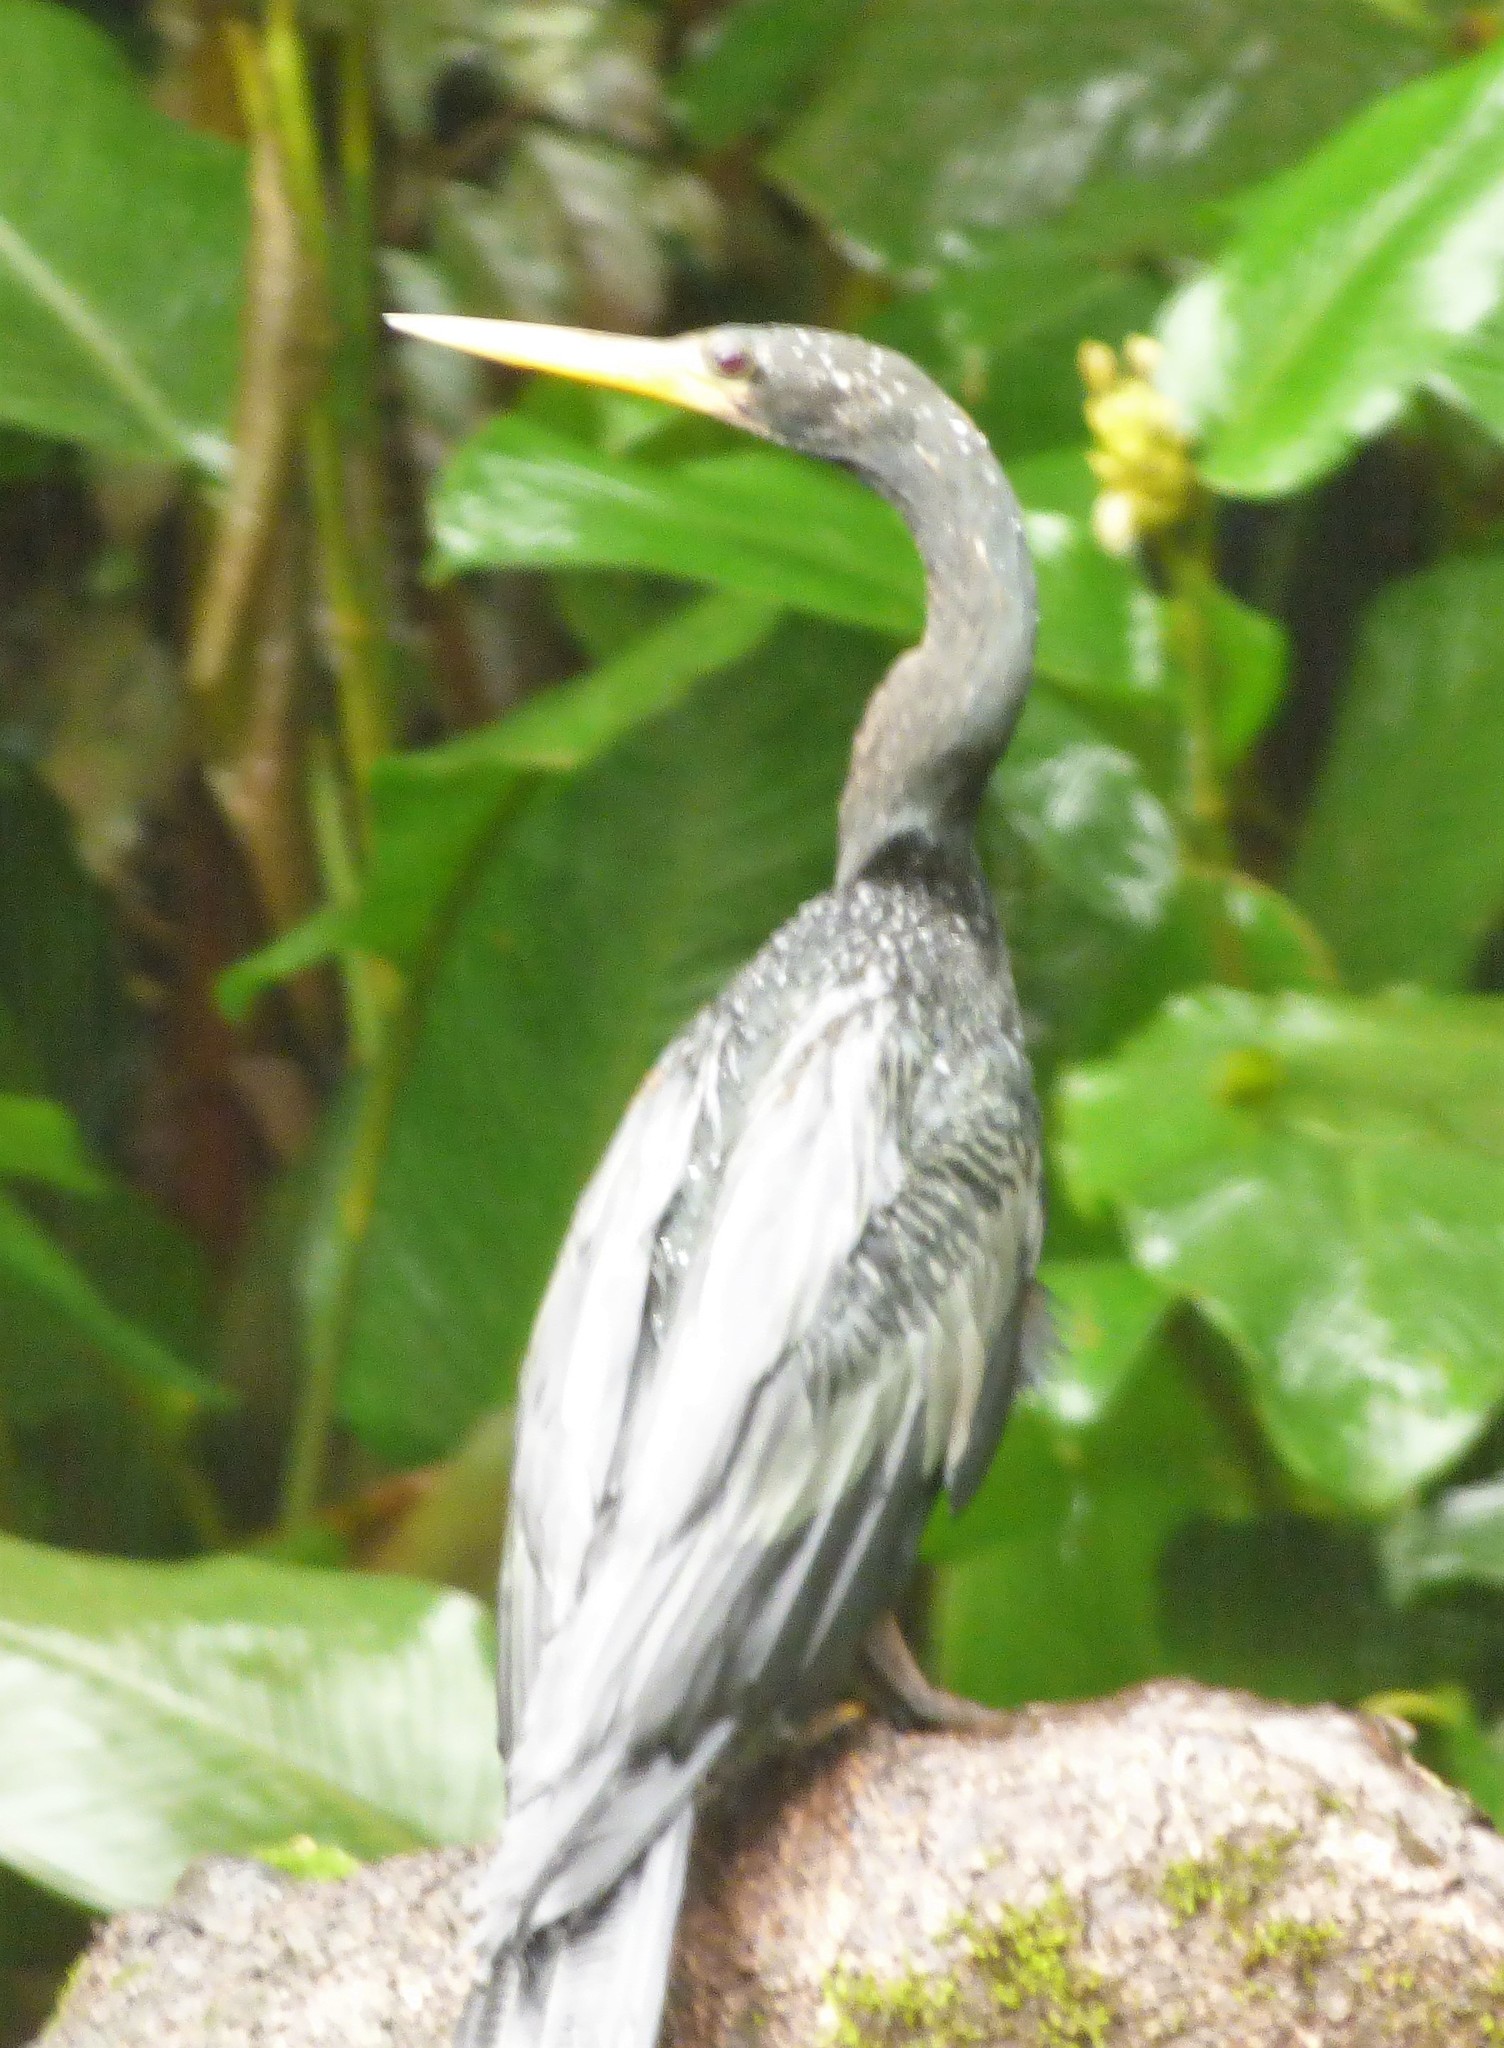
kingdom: Animalia
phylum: Chordata
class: Aves
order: Suliformes
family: Anhingidae
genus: Anhinga
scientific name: Anhinga anhinga
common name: Anhinga
